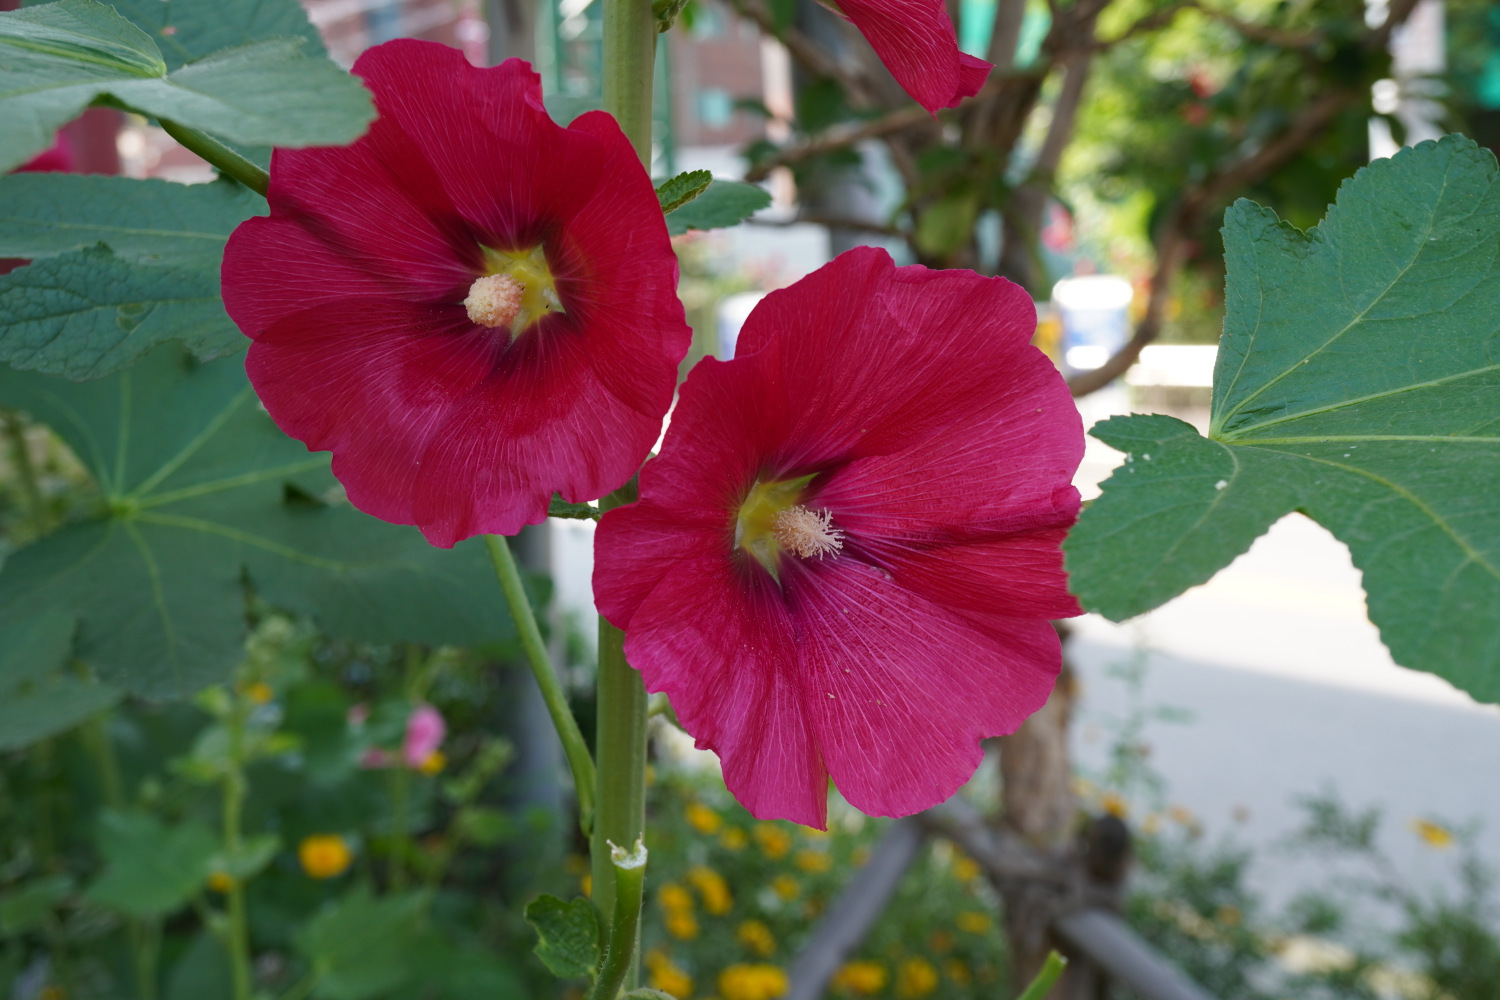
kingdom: Plantae
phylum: Tracheophyta
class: Magnoliopsida
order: Malvales
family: Malvaceae
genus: Alcea
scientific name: Alcea rosea
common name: Hollyhock
